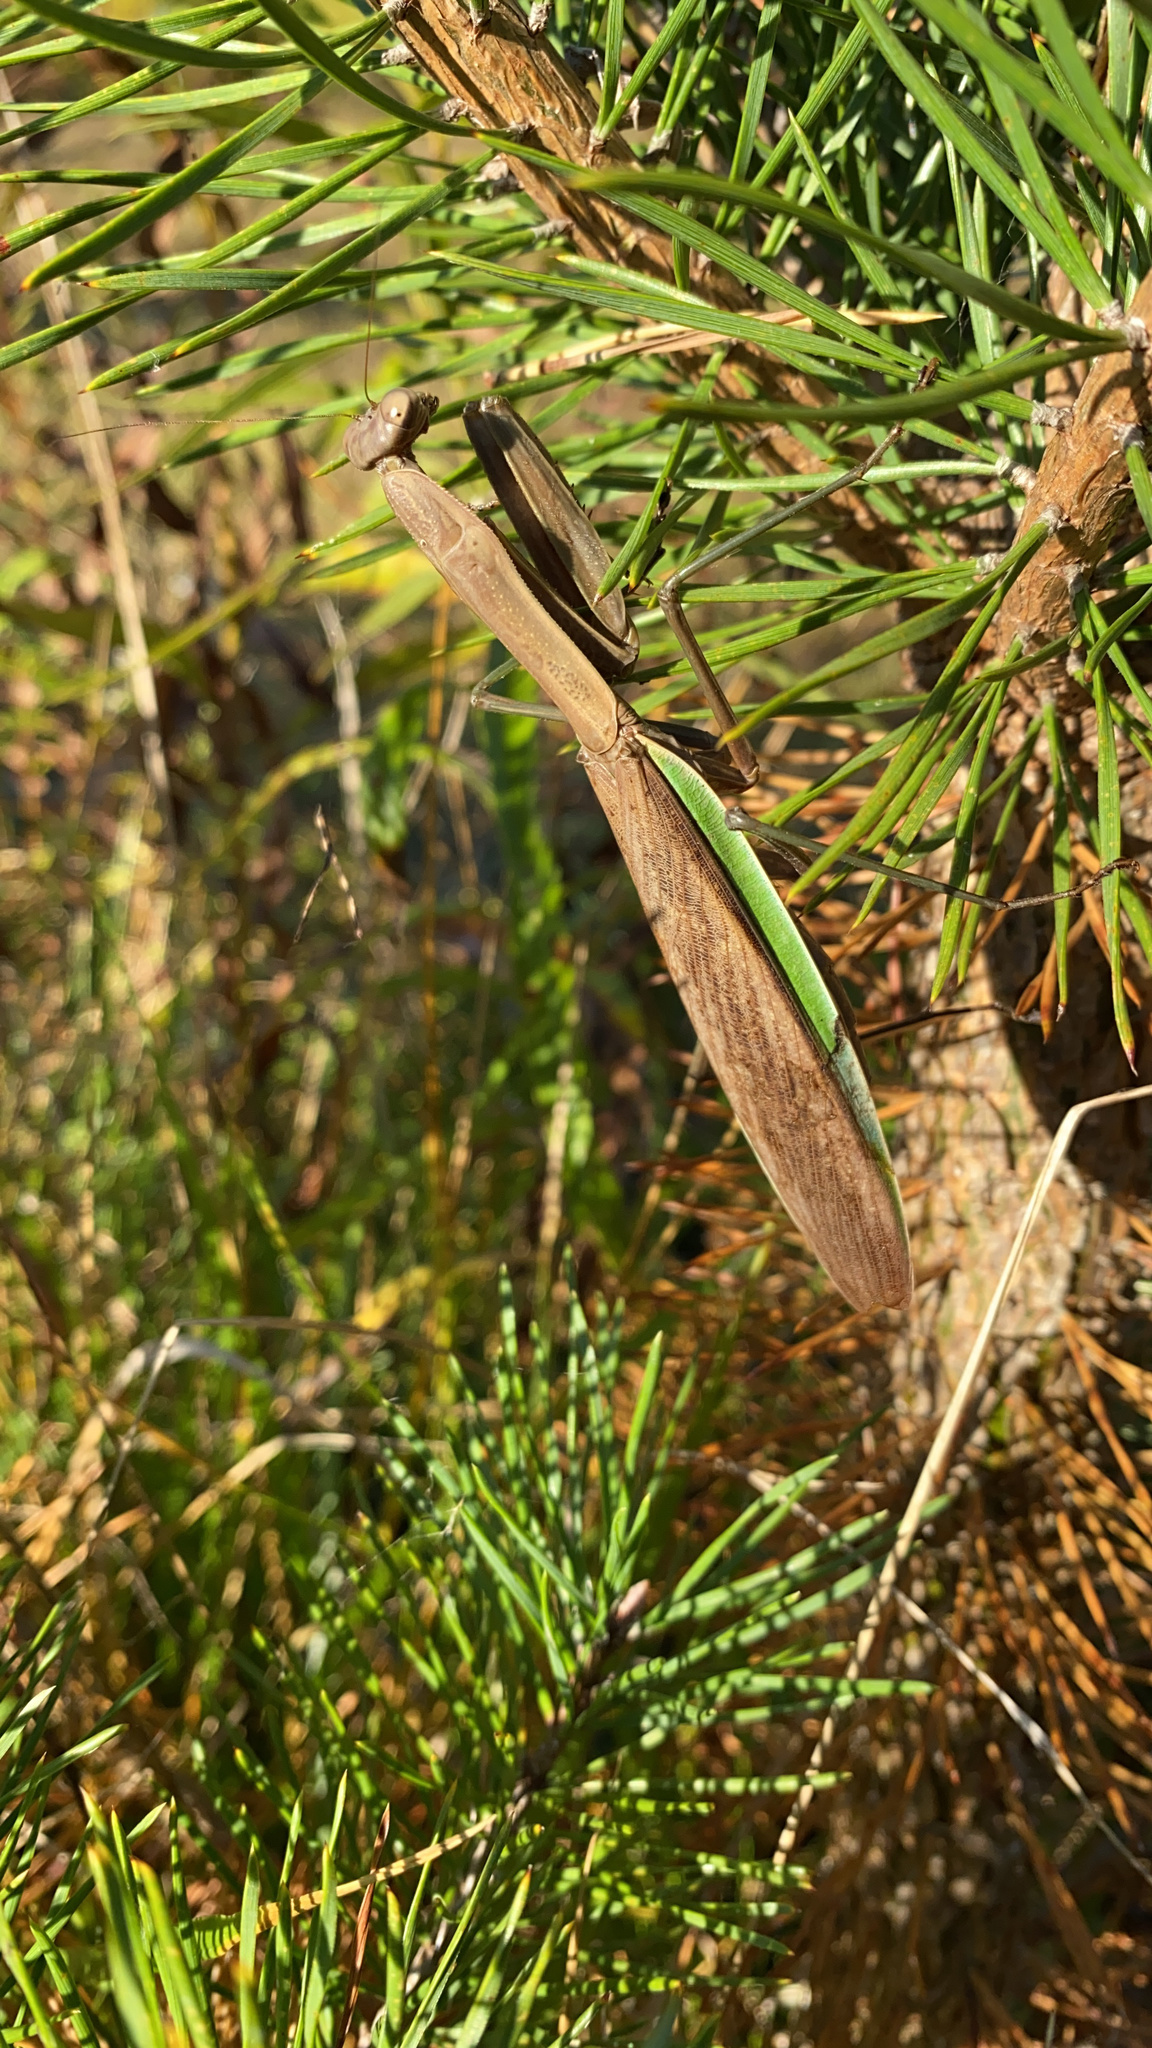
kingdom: Animalia
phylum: Arthropoda
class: Insecta
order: Mantodea
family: Mantidae
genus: Tenodera
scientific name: Tenodera sinensis
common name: Chinese mantis
